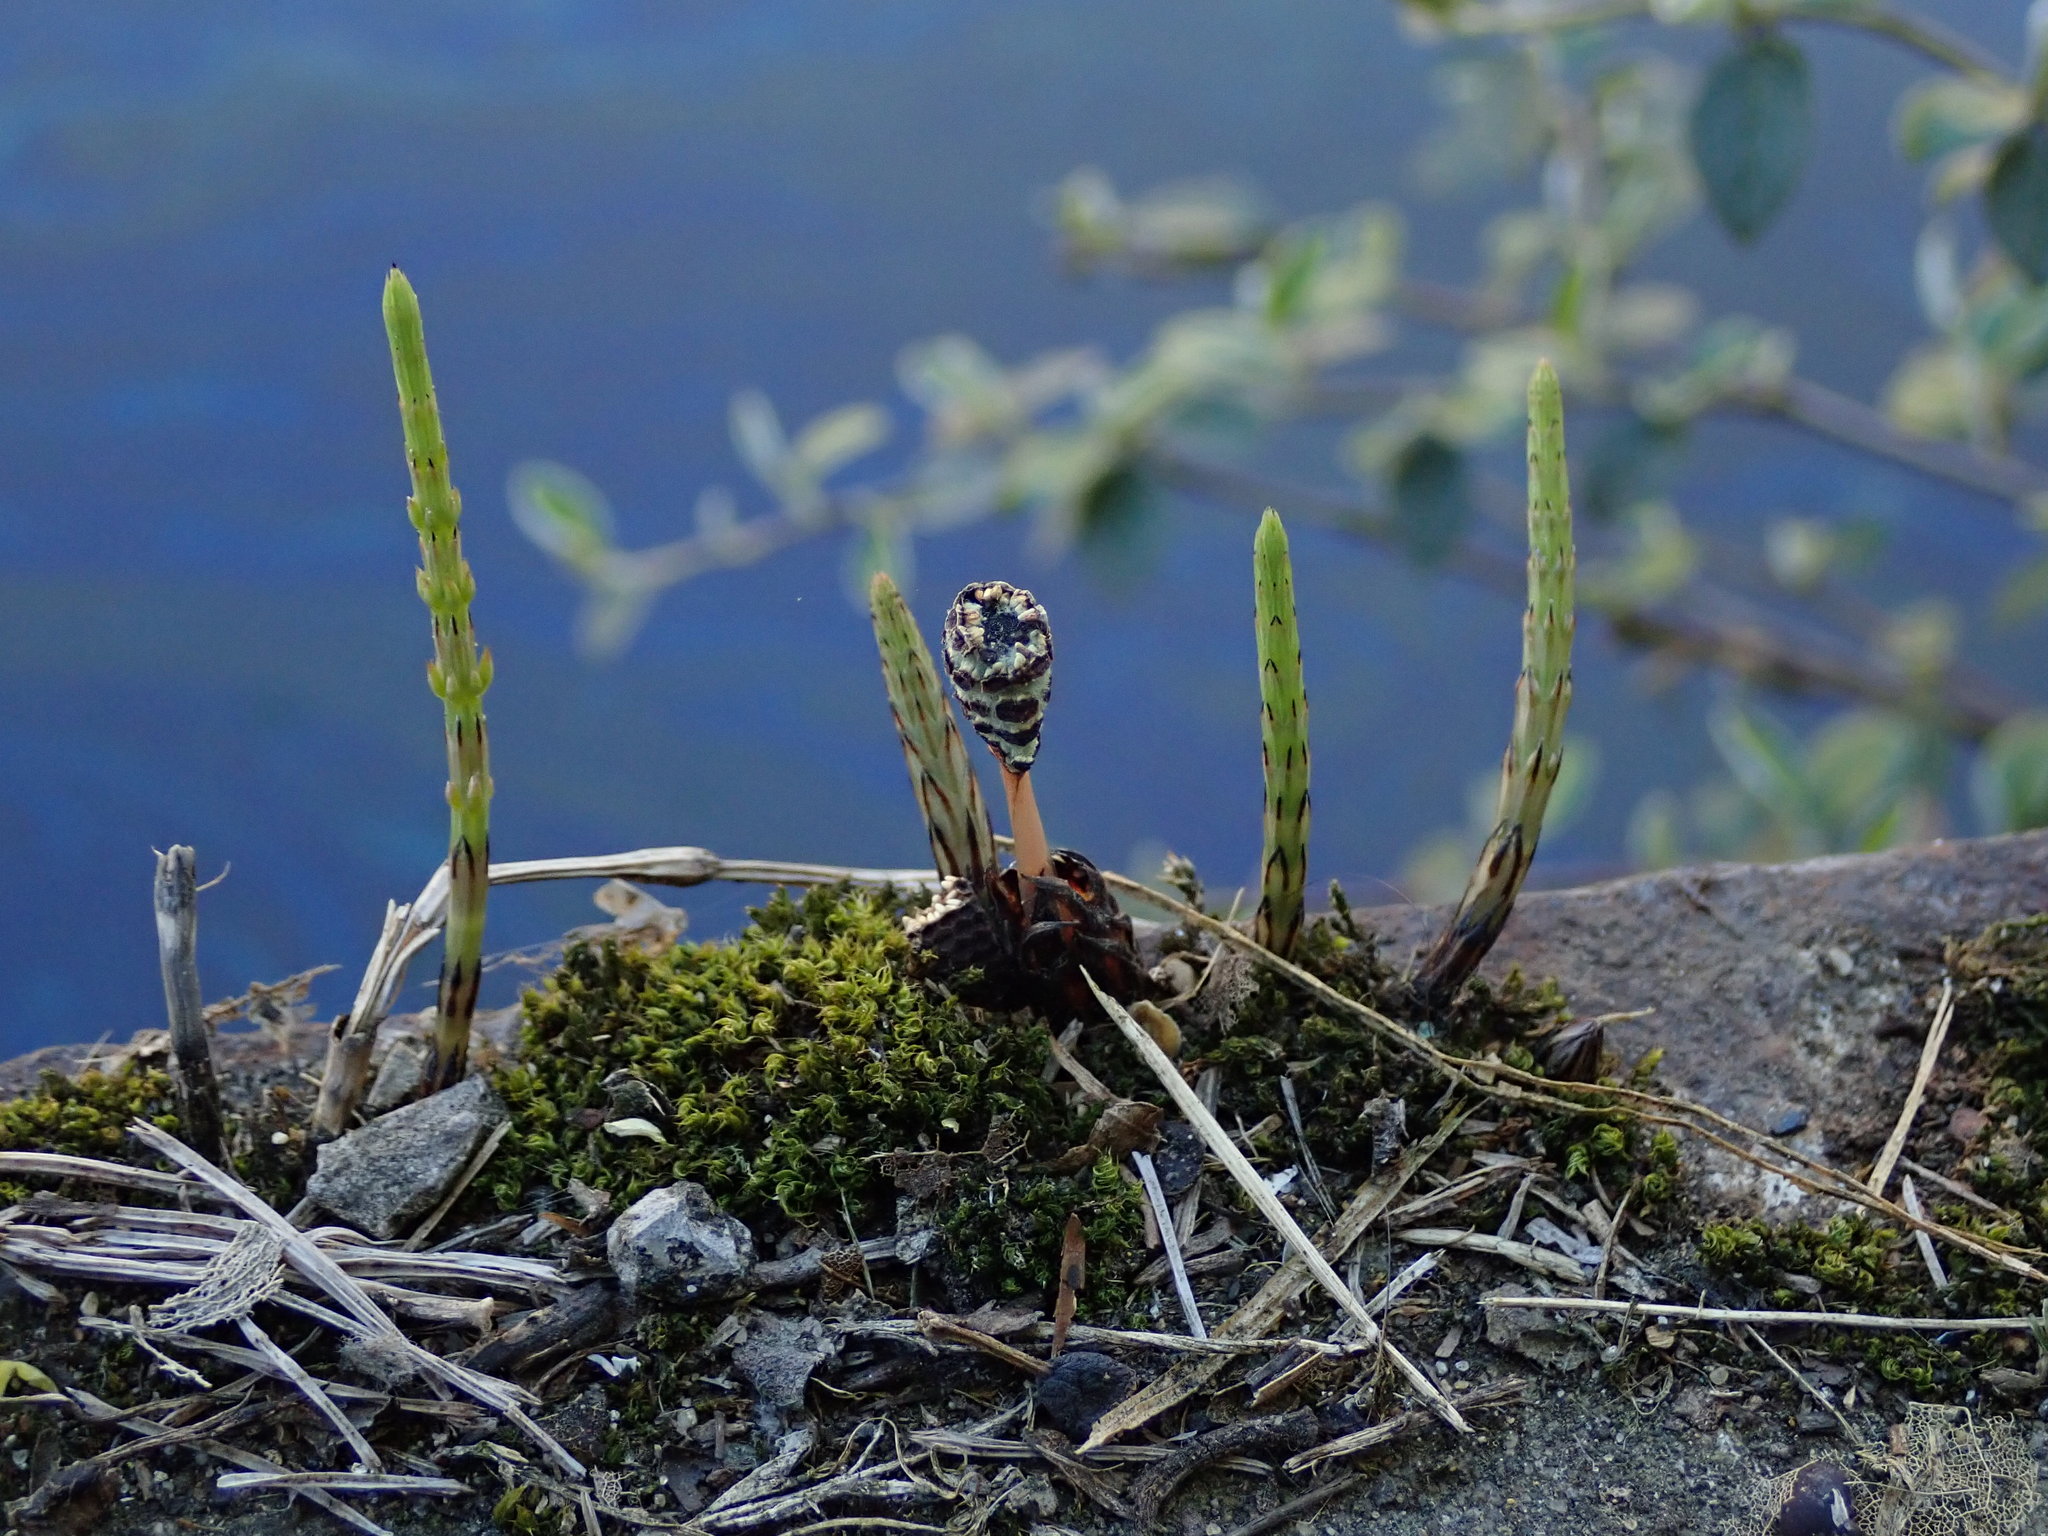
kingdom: Plantae
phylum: Tracheophyta
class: Polypodiopsida
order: Equisetales
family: Equisetaceae
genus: Equisetum
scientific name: Equisetum arvense
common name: Field horsetail
